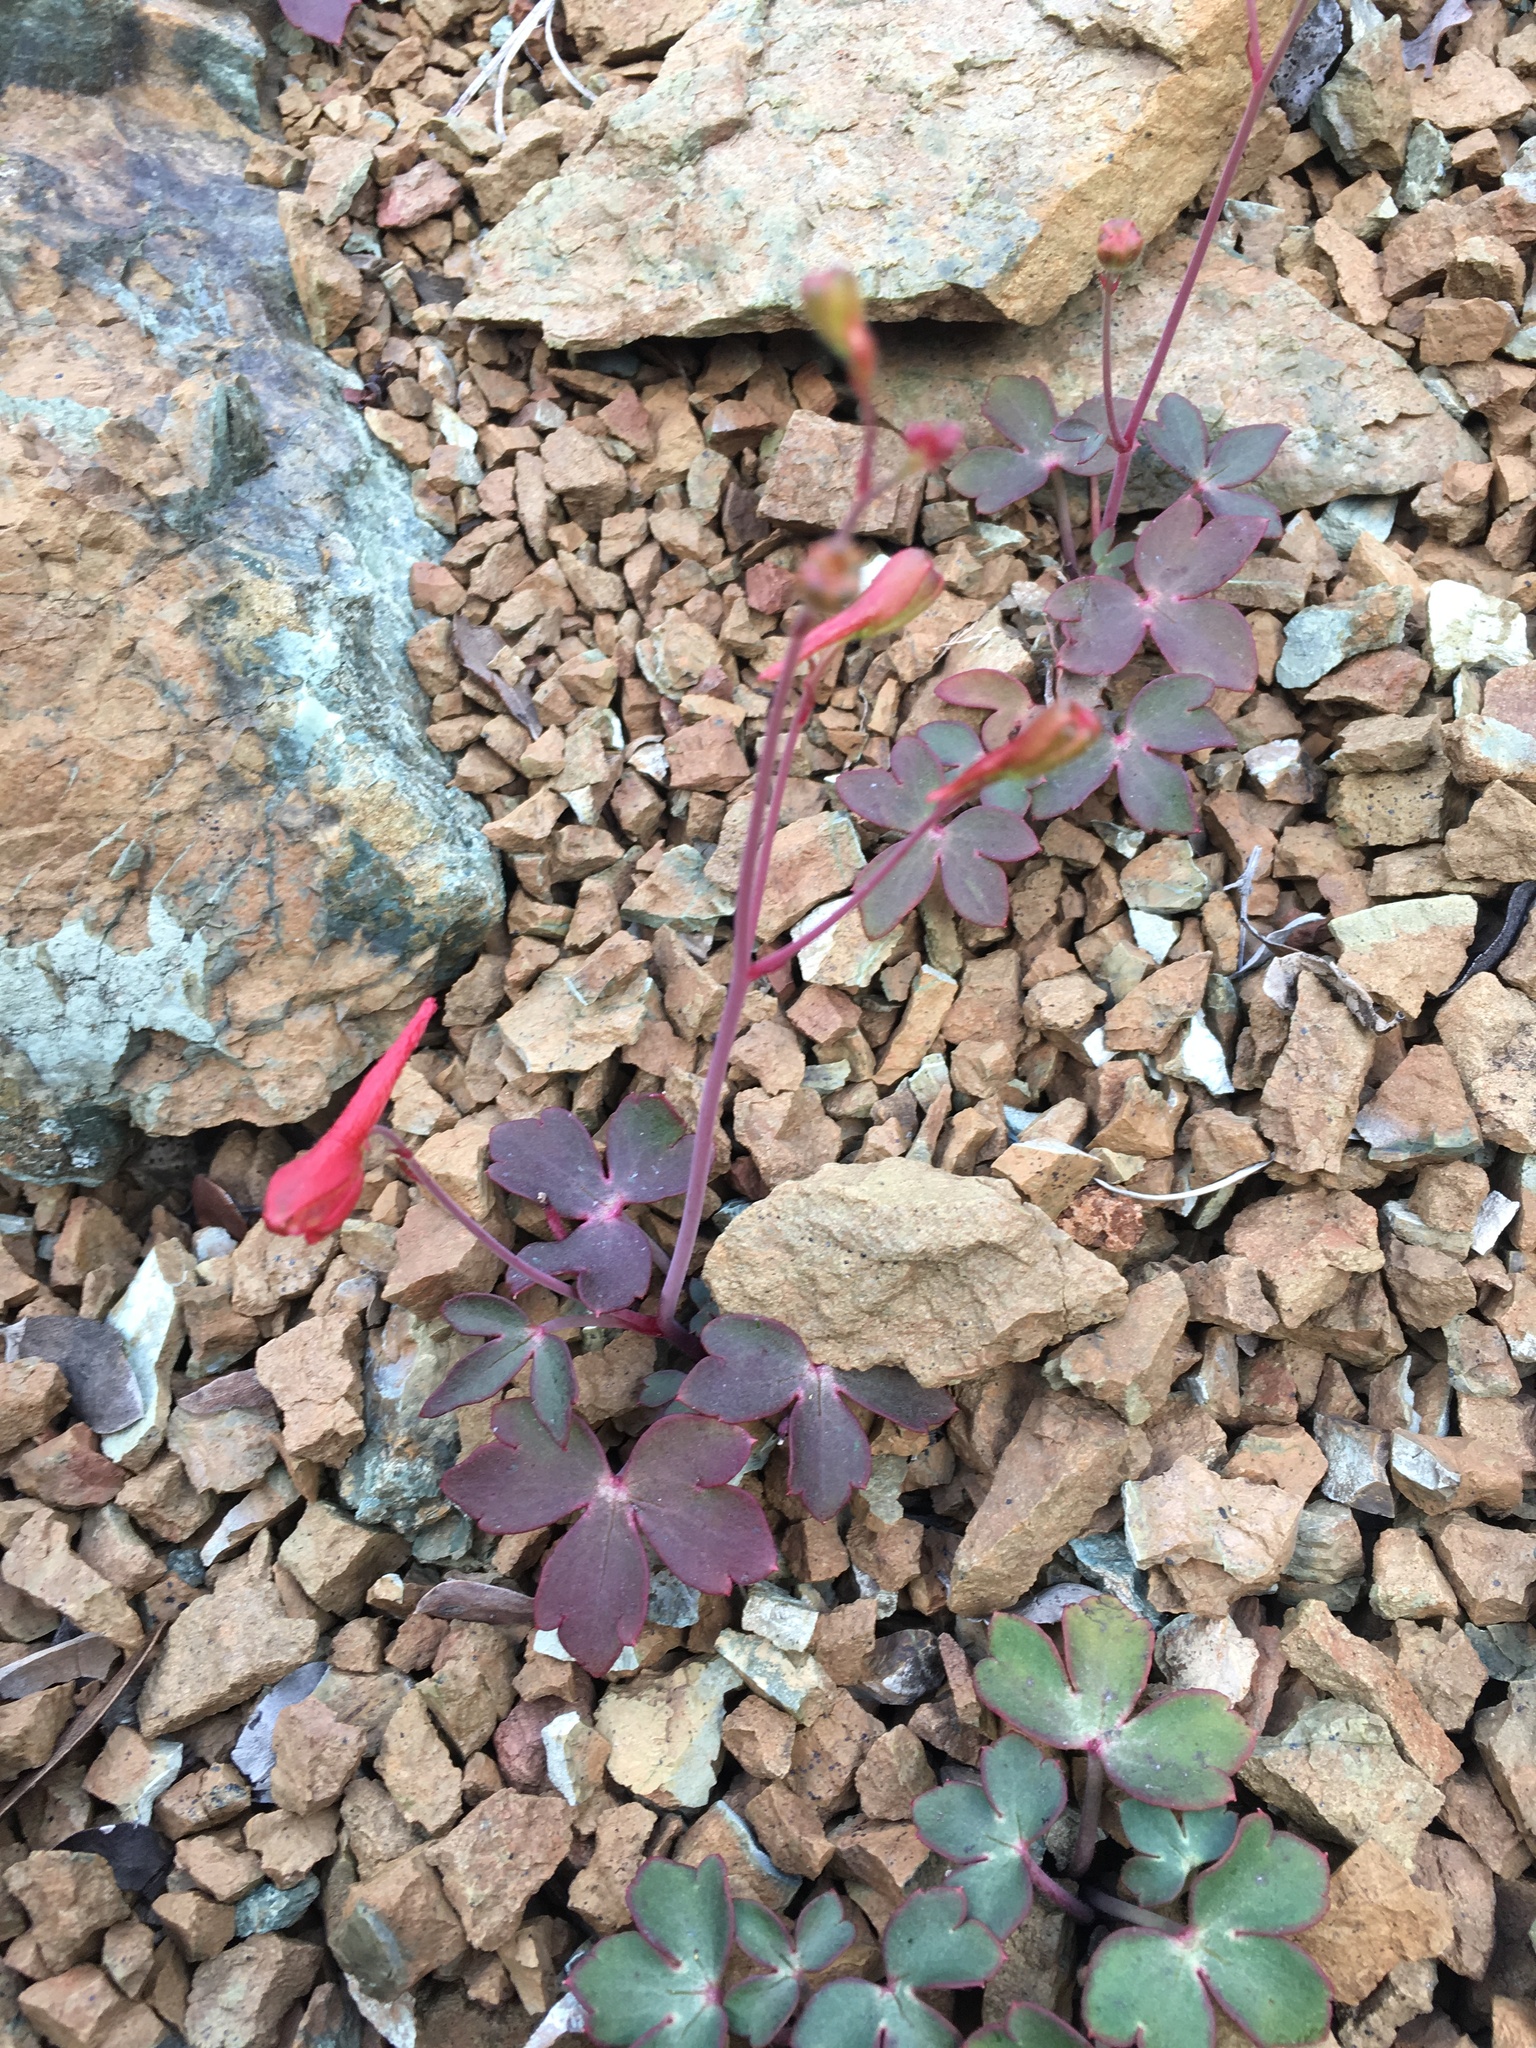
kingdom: Plantae
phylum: Tracheophyta
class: Magnoliopsida
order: Ranunculales
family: Ranunculaceae
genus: Delphinium
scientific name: Delphinium nudicaule
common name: Red larkspur
